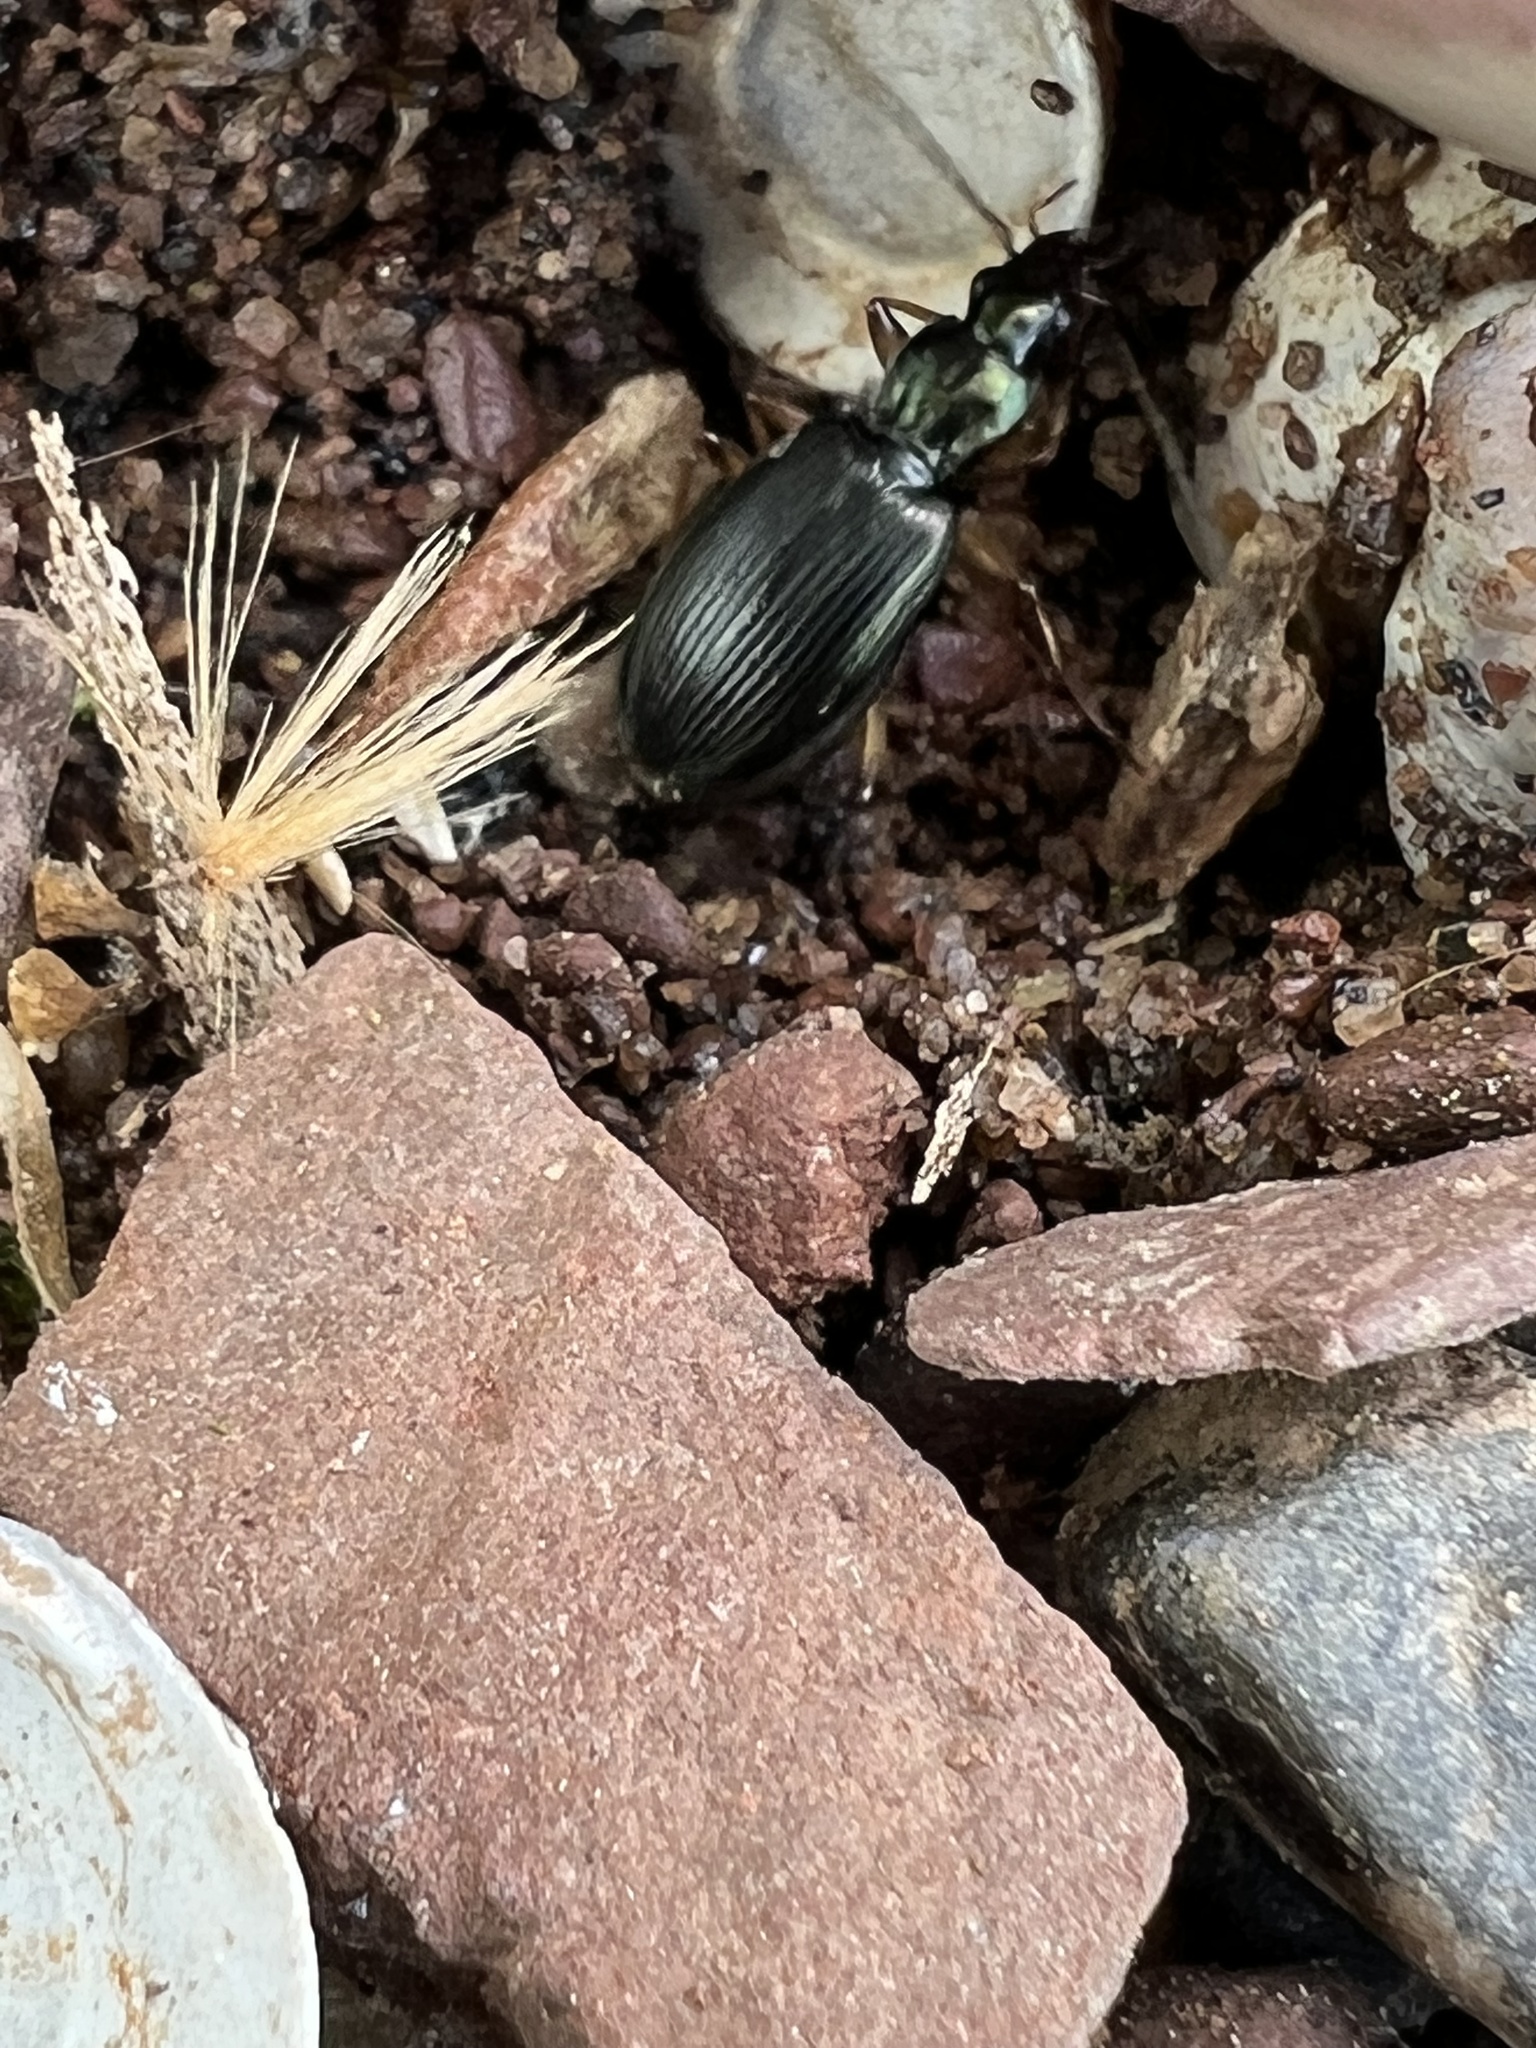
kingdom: Animalia
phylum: Arthropoda
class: Insecta
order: Coleoptera
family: Carabidae
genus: Agonum
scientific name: Agonum extensicolle
